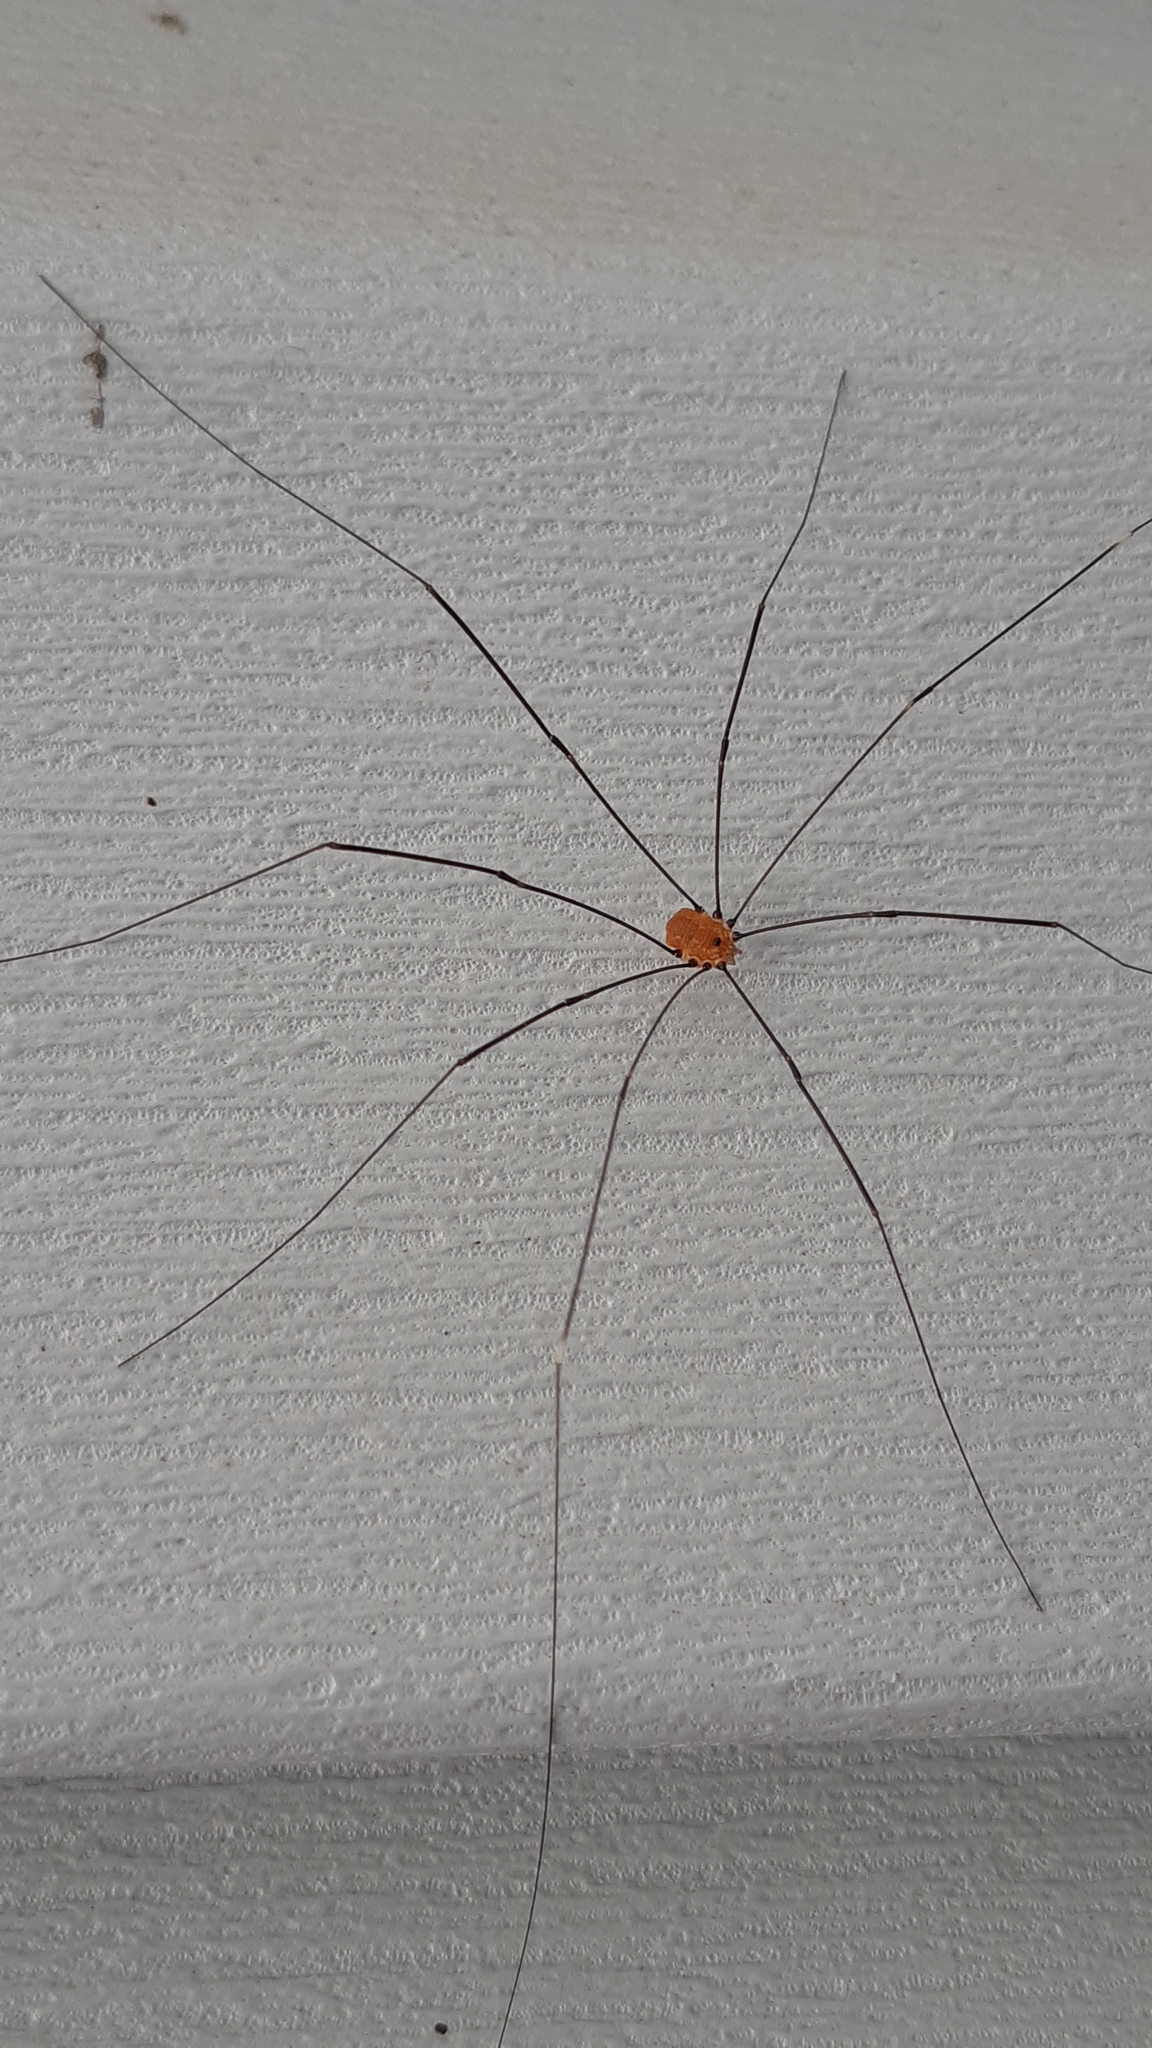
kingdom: Animalia
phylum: Arthropoda
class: Arachnida
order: Opiliones
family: Sclerosomatidae
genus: Leiobunum
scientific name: Leiobunum aldrichi
